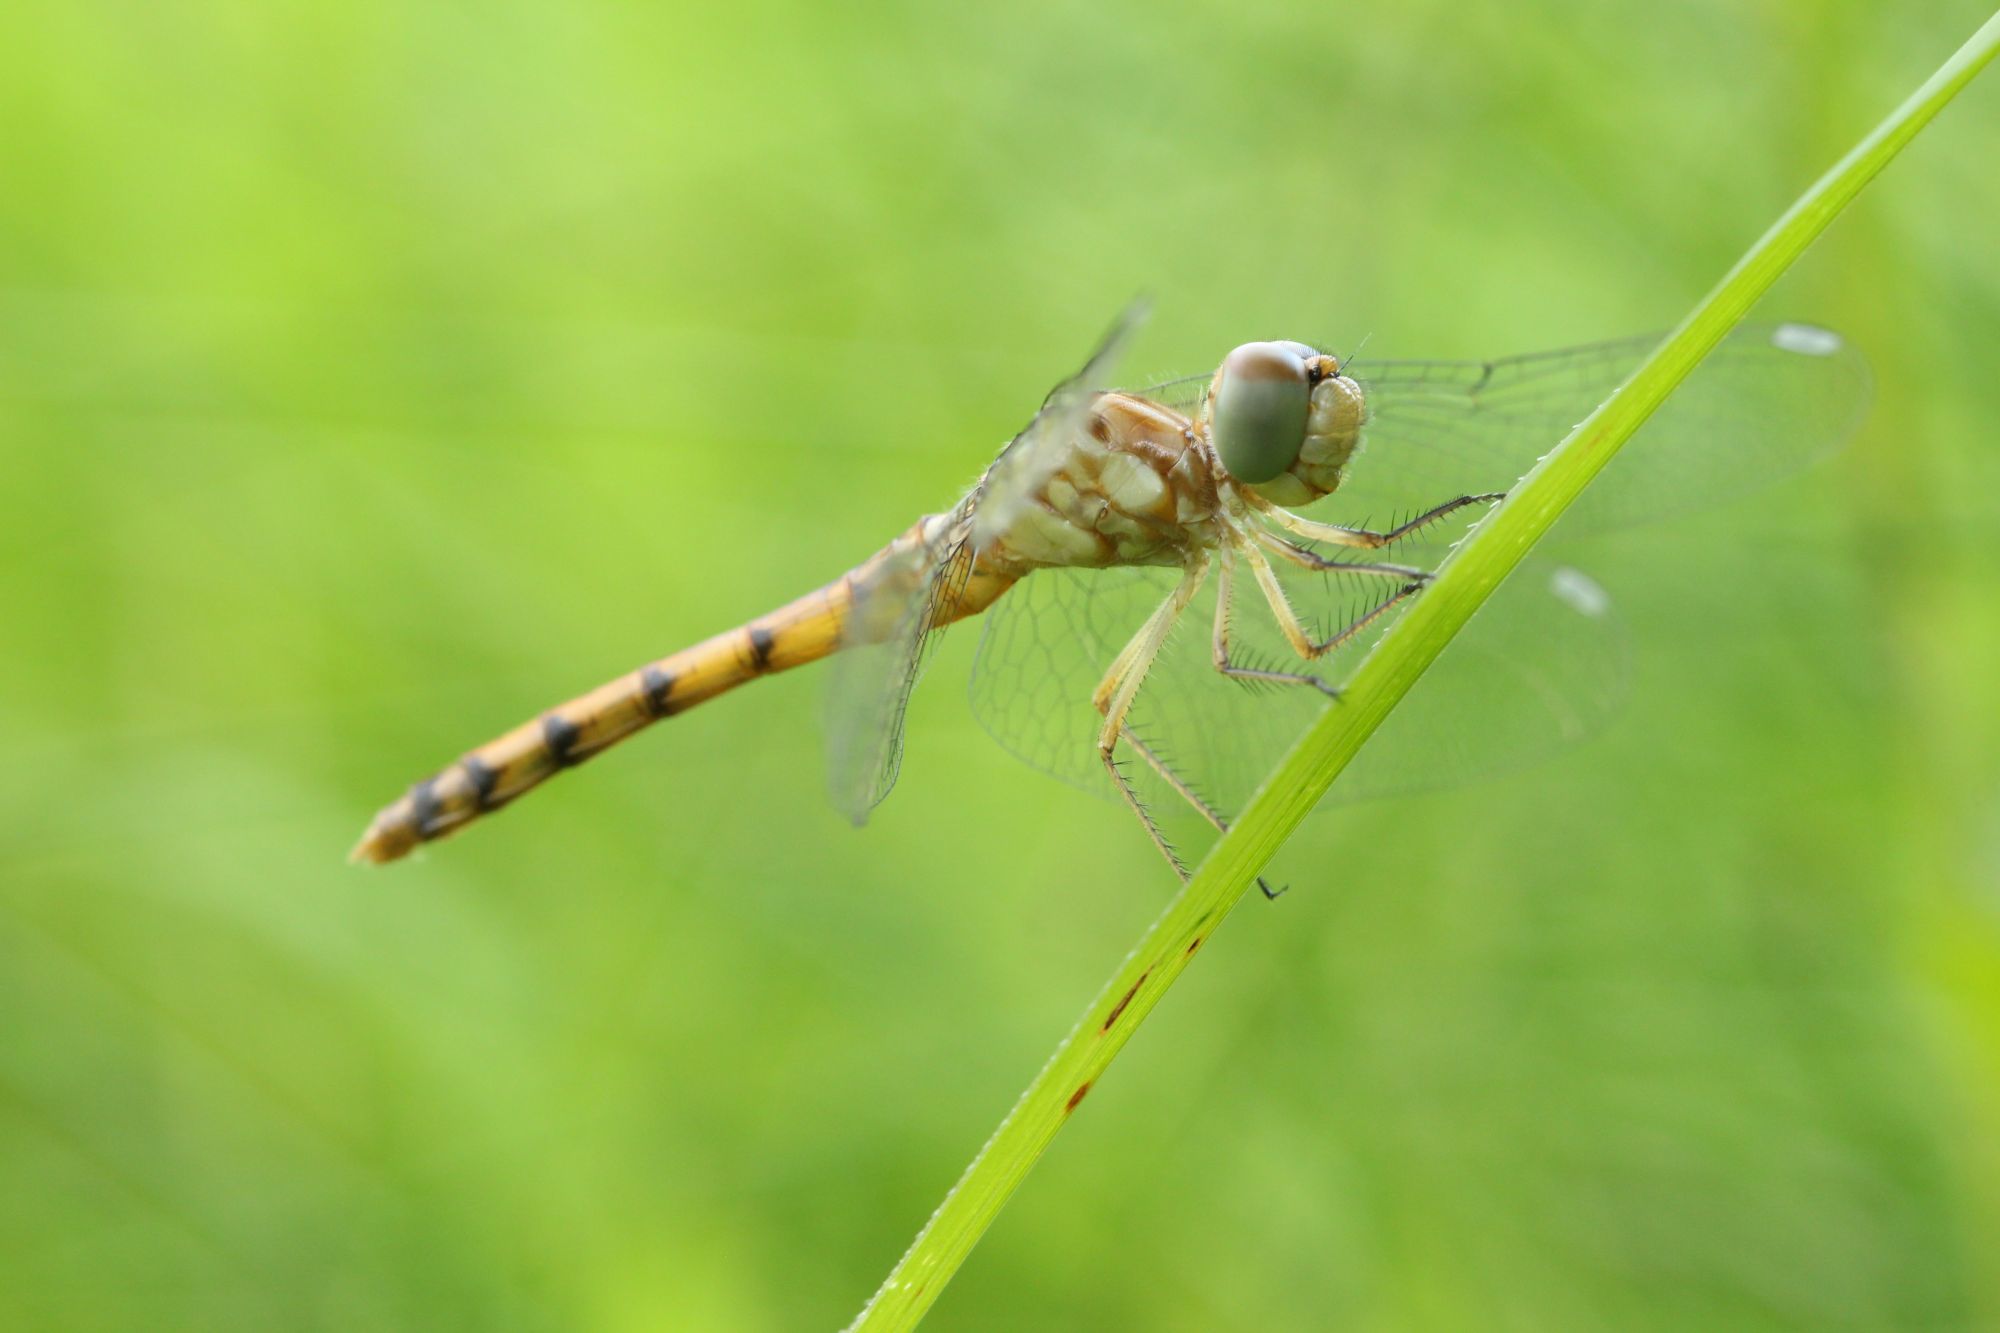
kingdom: Animalia
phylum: Arthropoda
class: Insecta
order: Odonata
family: Libellulidae
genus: Sympetrum
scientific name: Sympetrum ambiguum
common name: Blue-faced meadowhawk
